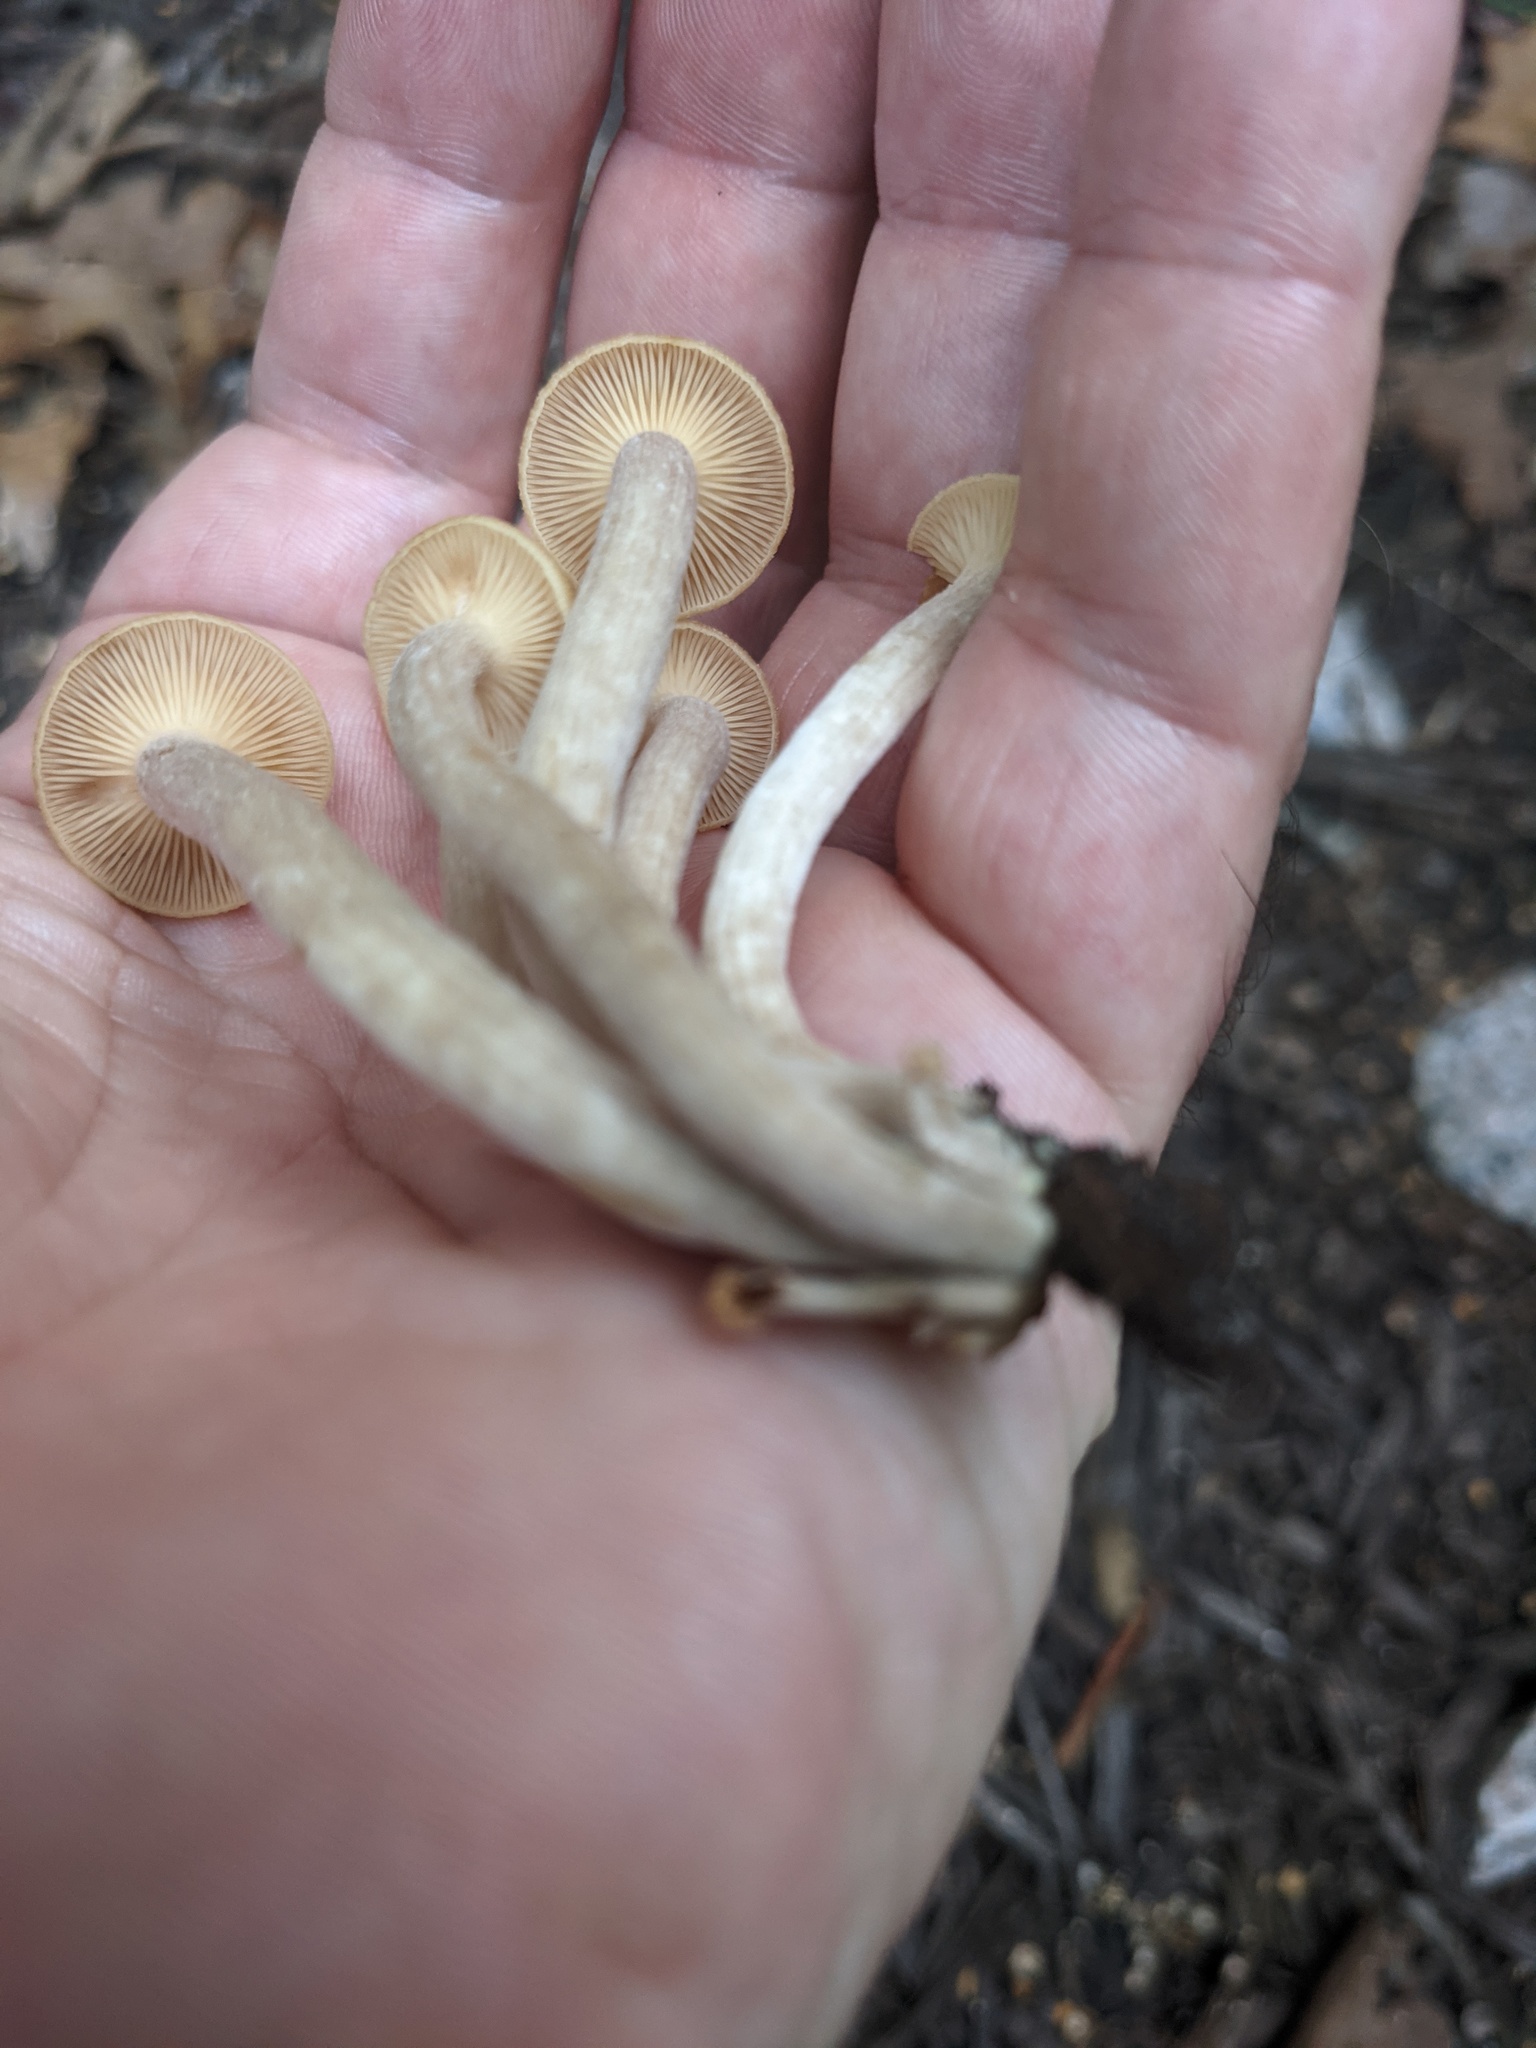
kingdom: Fungi
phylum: Basidiomycota
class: Agaricomycetes
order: Agaricales
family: Physalacriaceae
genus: Desarmillaria
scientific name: Desarmillaria caespitosa
